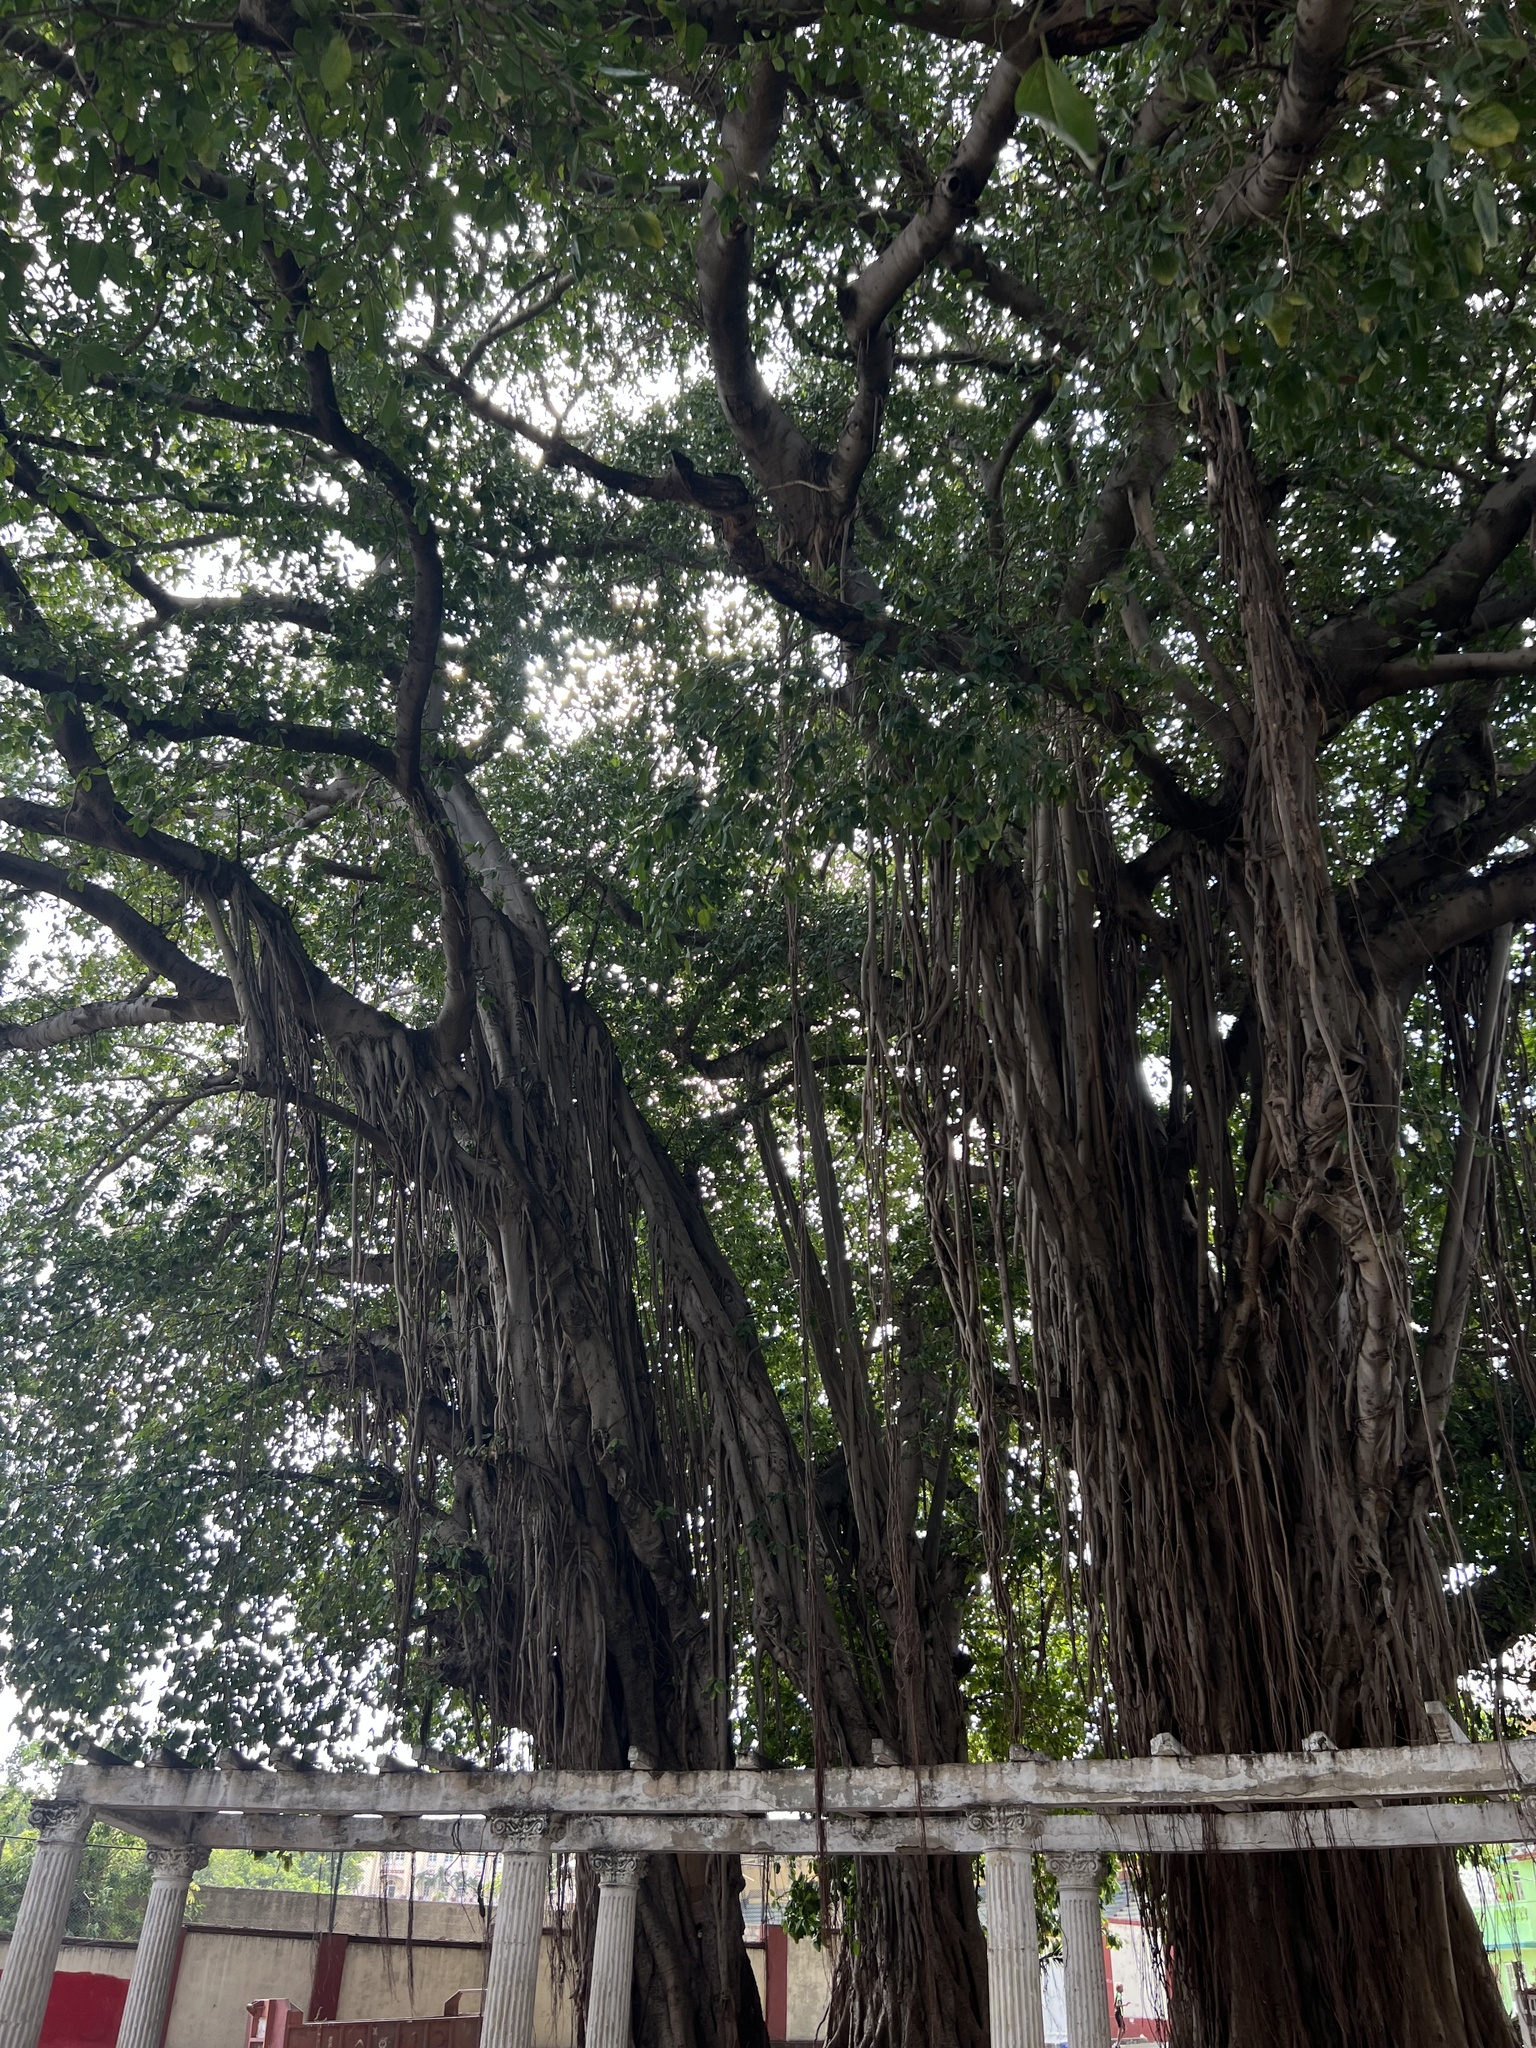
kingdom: Plantae
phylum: Tracheophyta
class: Magnoliopsida
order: Rosales
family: Moraceae
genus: Ficus
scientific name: Ficus benghalensis
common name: Indian banyan
